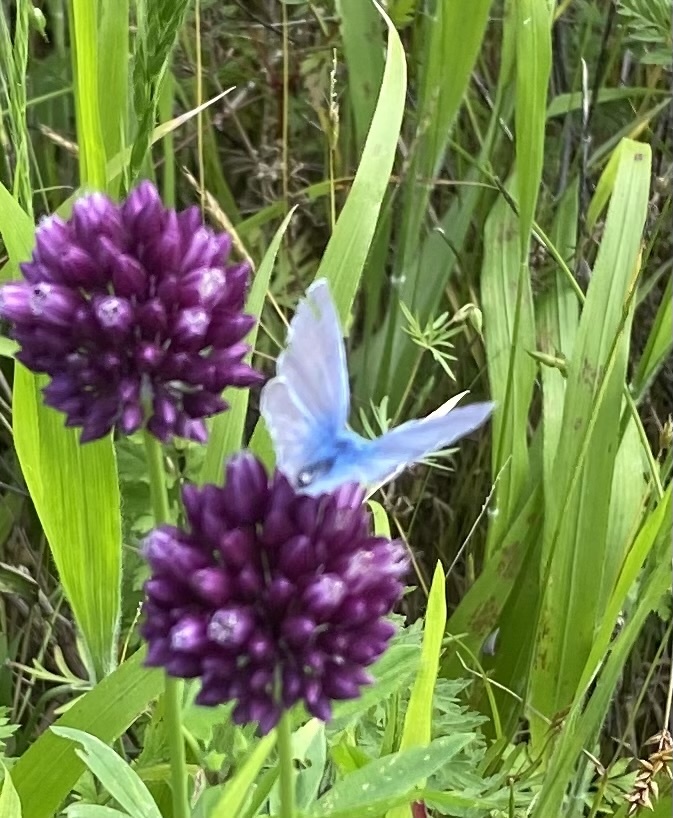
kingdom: Animalia
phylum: Arthropoda
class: Insecta
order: Lepidoptera
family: Lycaenidae
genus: Polyommatus
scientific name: Polyommatus icarus
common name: Common blue
